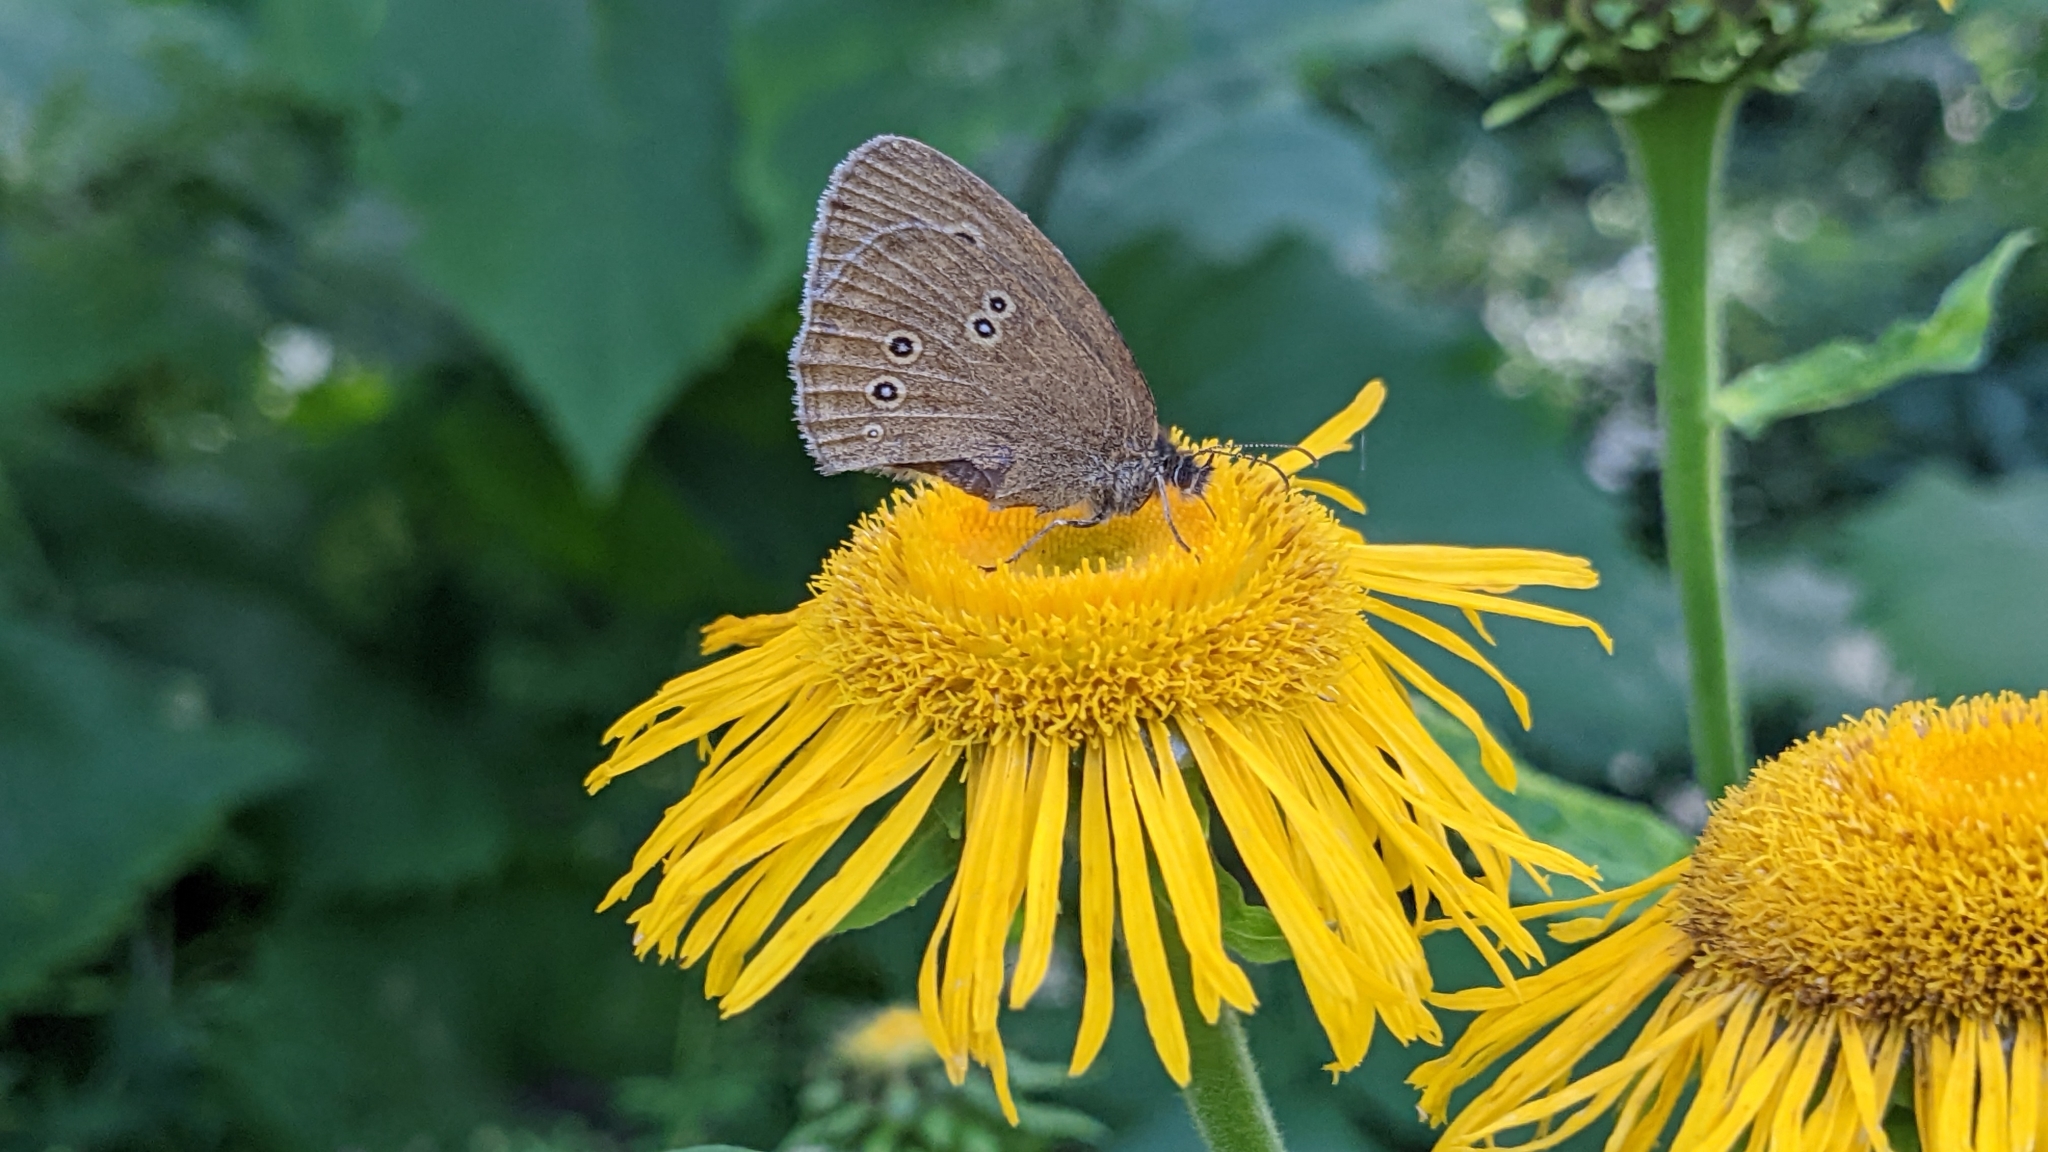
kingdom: Animalia
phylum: Arthropoda
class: Insecta
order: Lepidoptera
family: Nymphalidae
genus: Aphantopus
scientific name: Aphantopus hyperantus
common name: Ringlet
